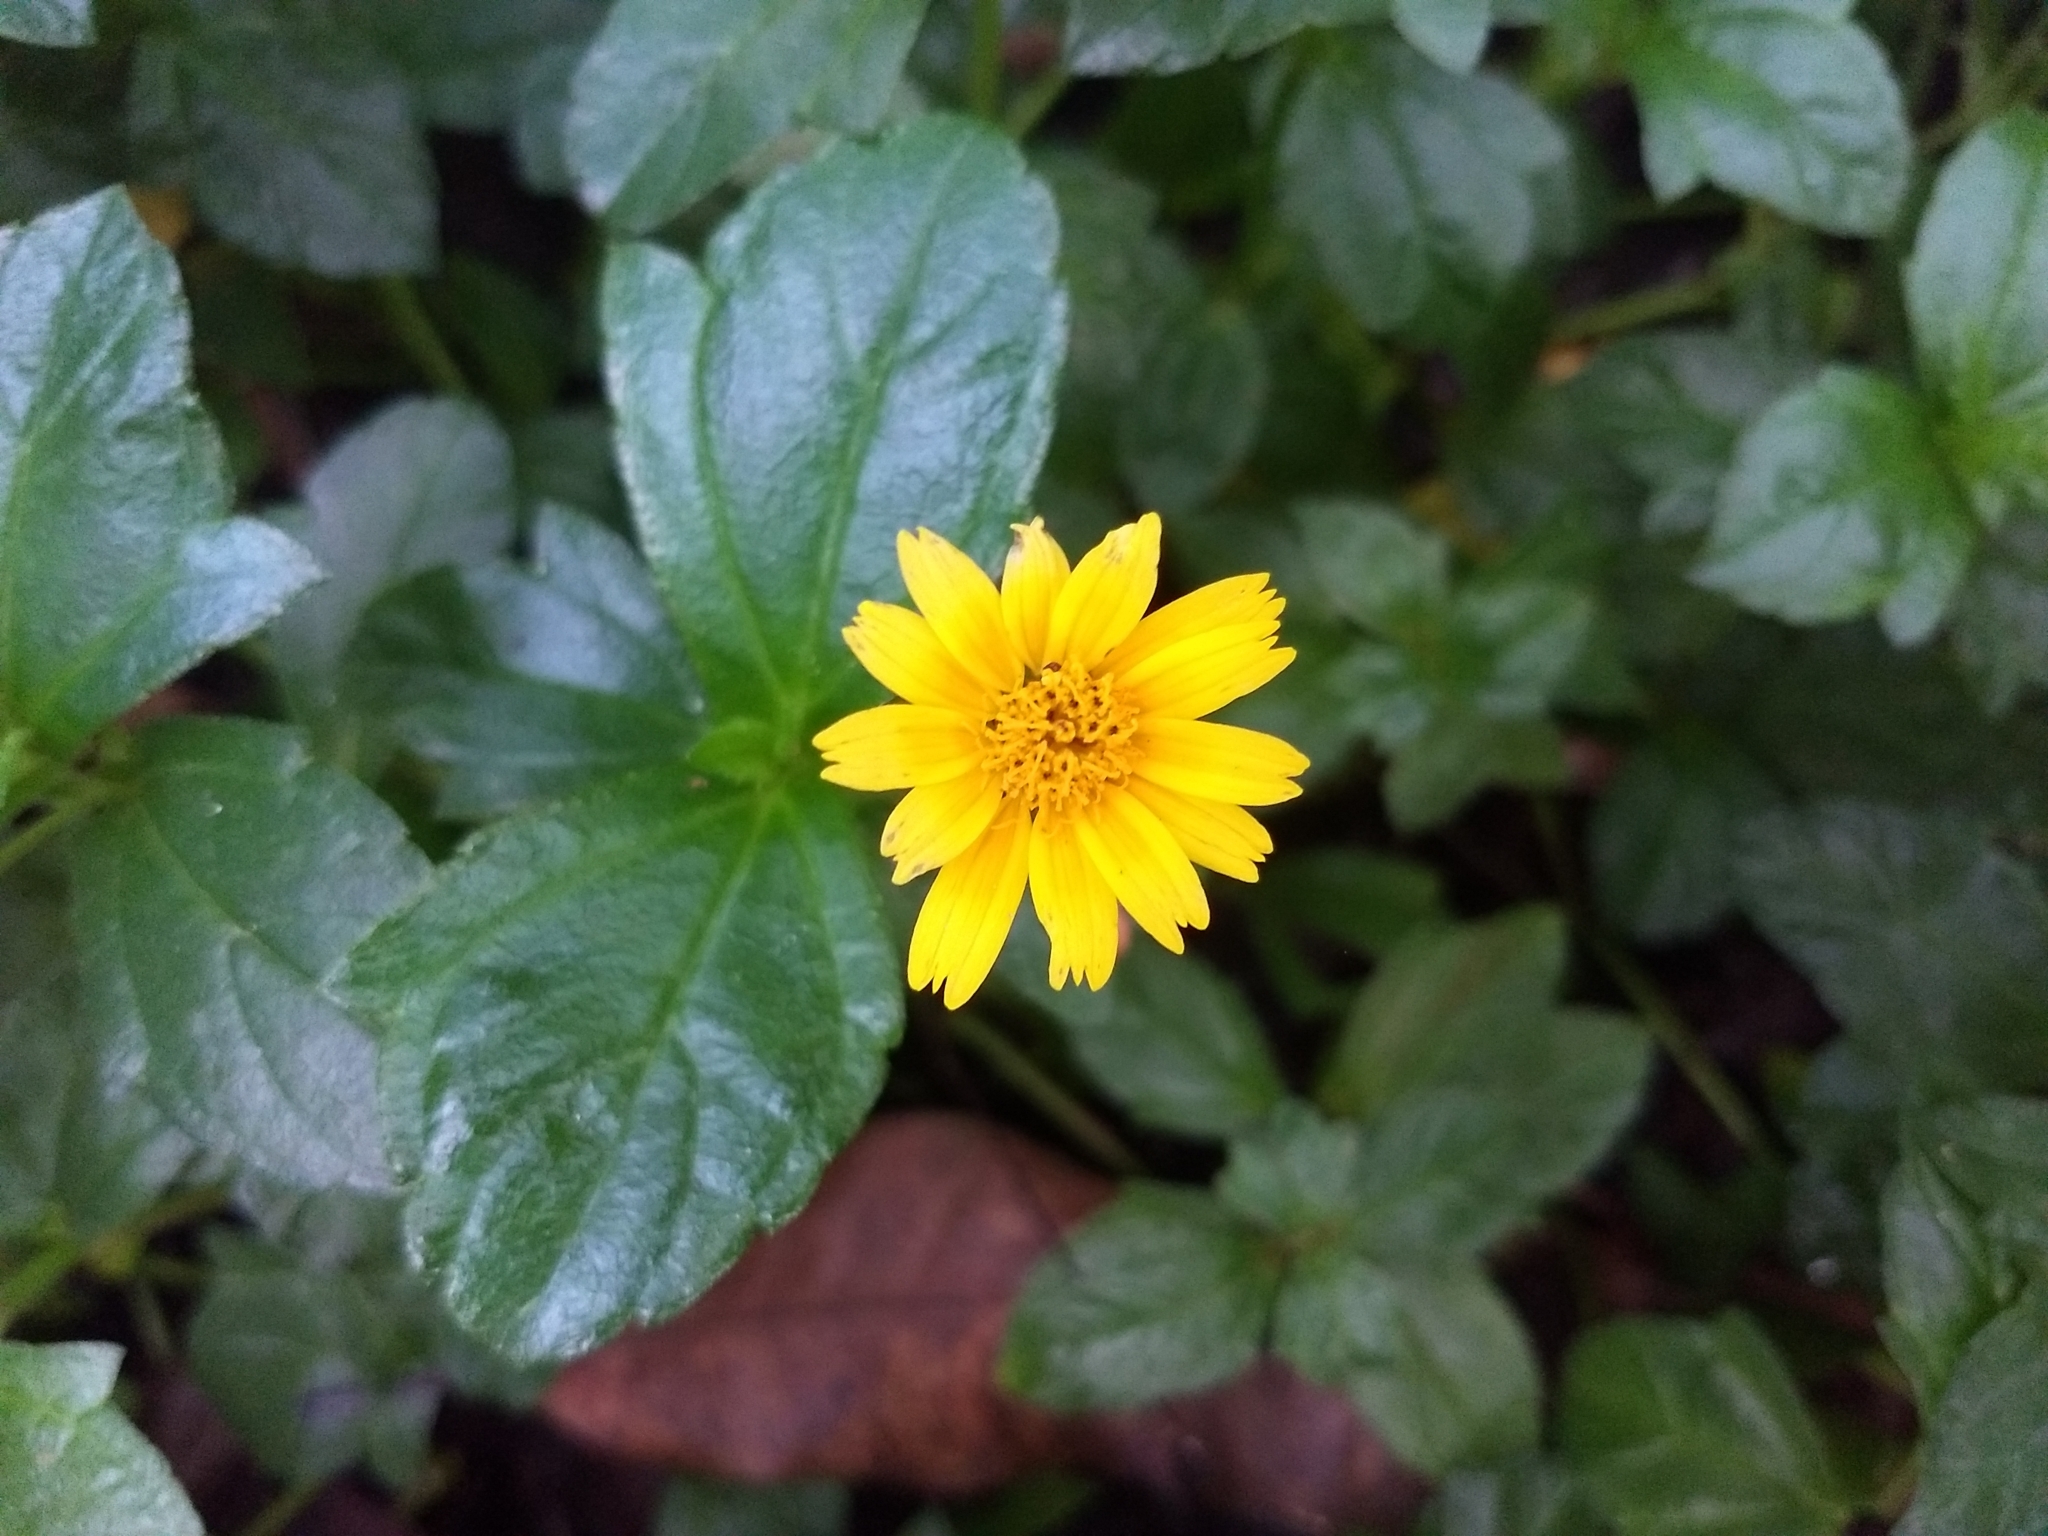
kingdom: Plantae
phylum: Tracheophyta
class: Magnoliopsida
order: Asterales
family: Asteraceae
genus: Sphagneticola
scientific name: Sphagneticola trilobata
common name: Bay biscayne creeping-oxeye
